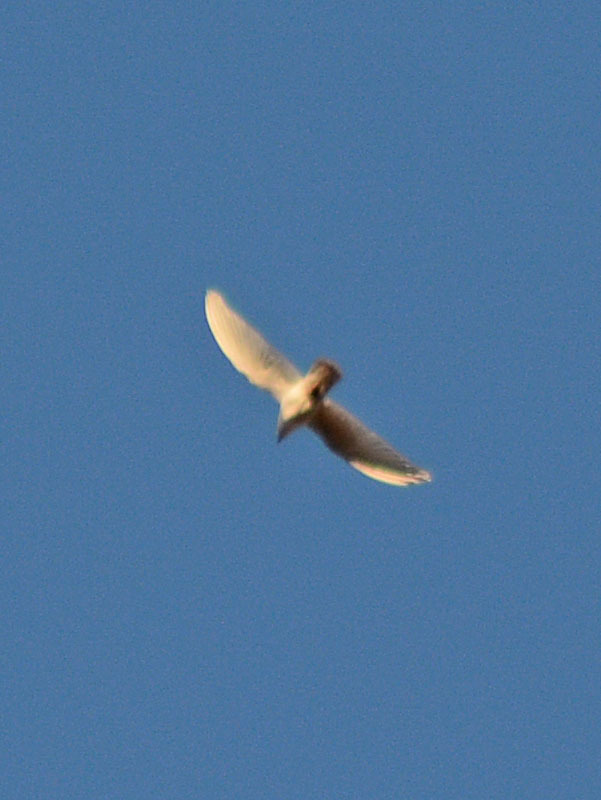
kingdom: Animalia
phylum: Chordata
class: Aves
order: Columbiformes
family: Columbidae
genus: Columba
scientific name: Columba livia
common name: Rock pigeon
